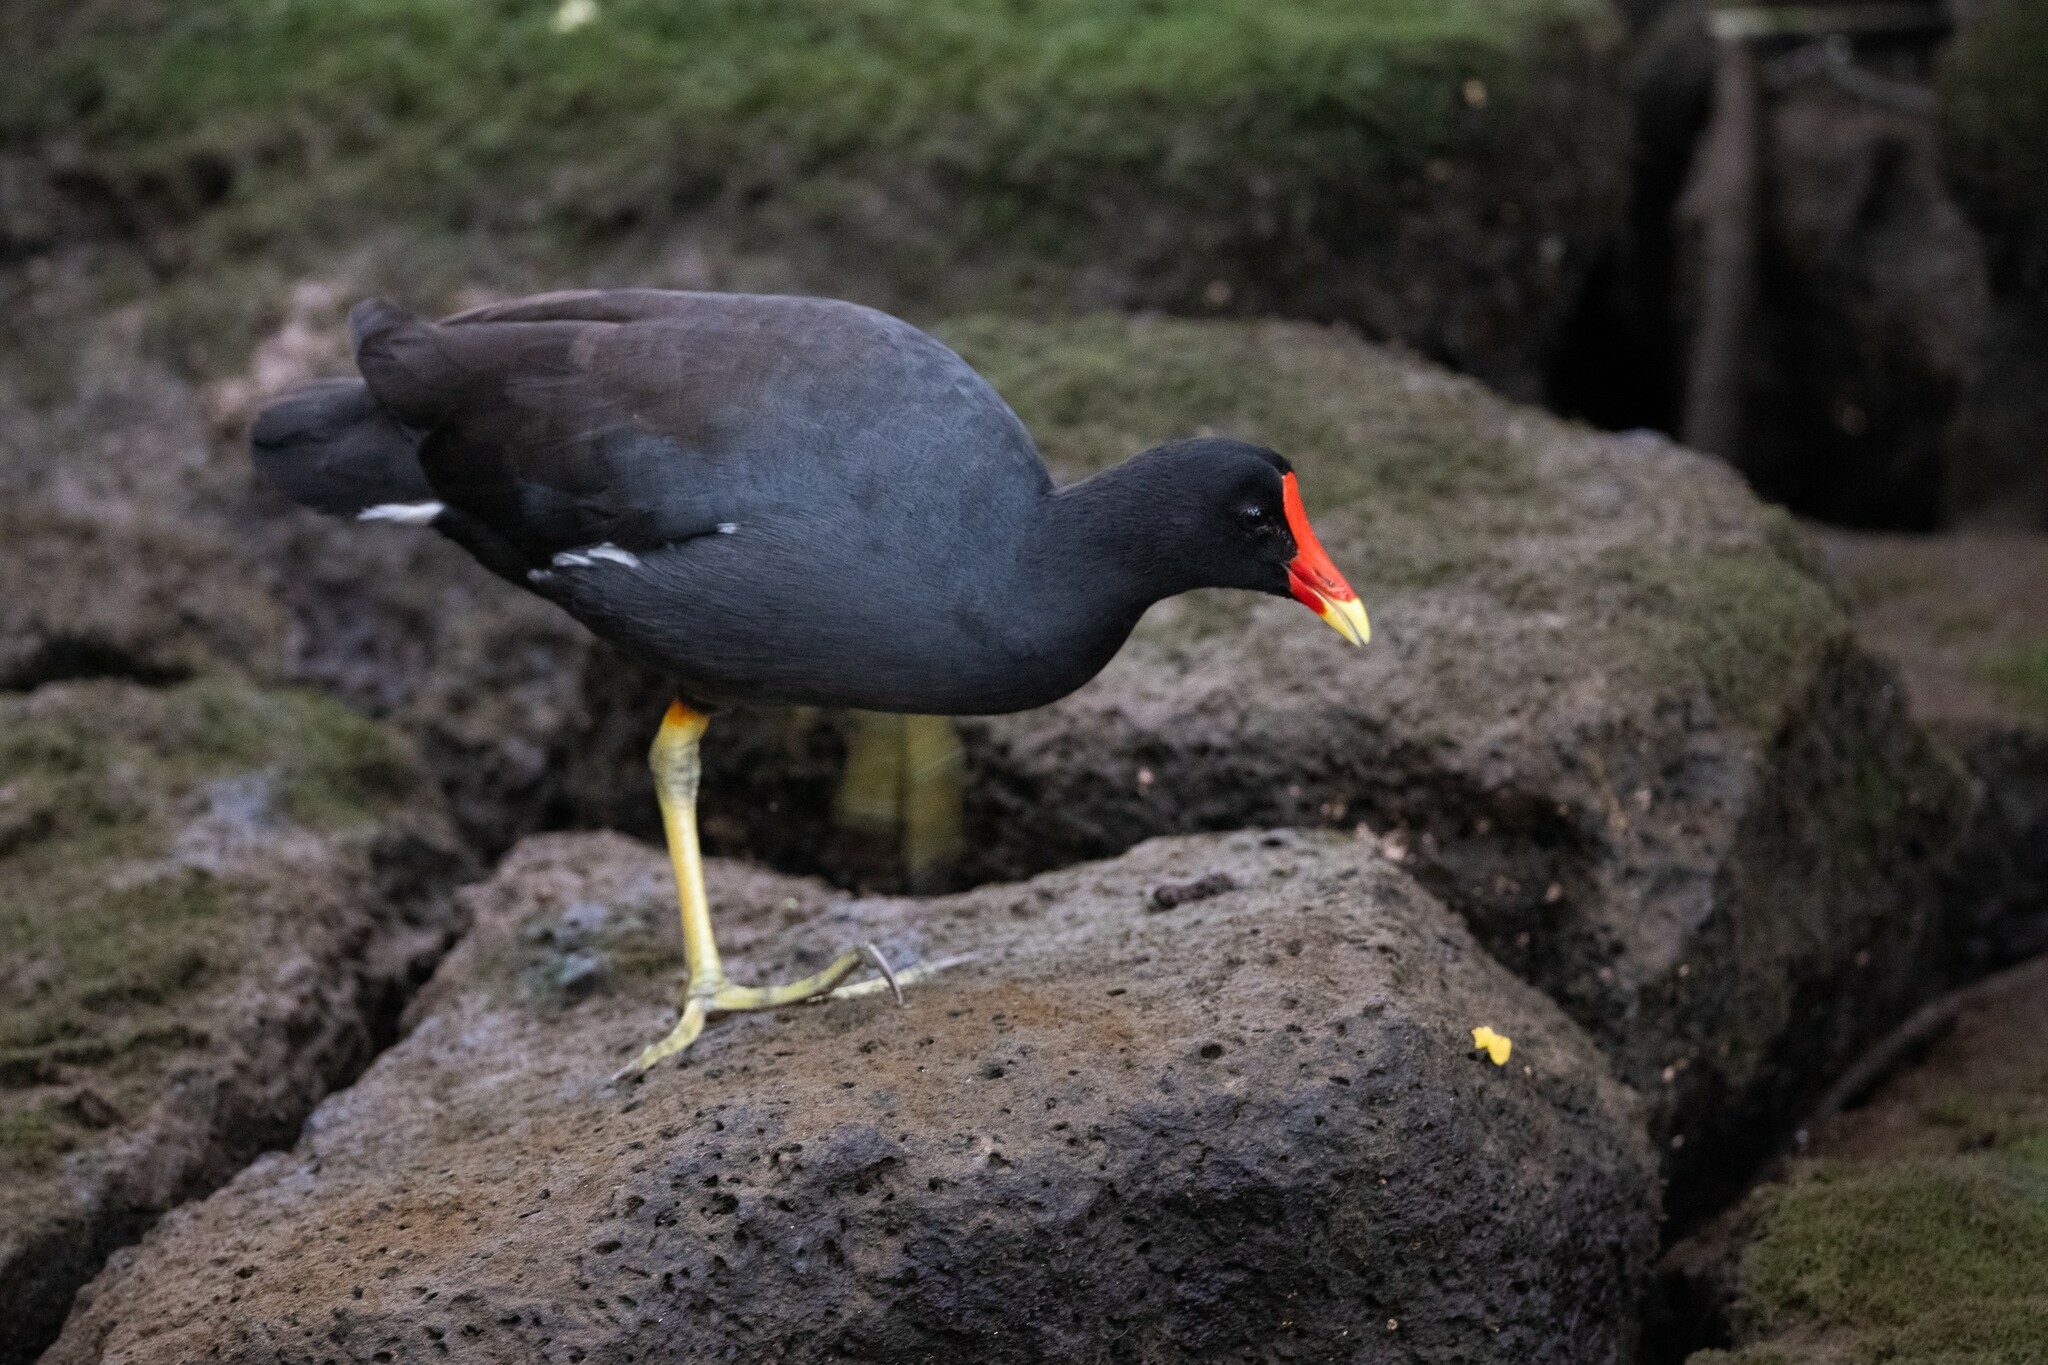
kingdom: Animalia
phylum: Chordata
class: Aves
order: Gruiformes
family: Rallidae
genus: Gallinula
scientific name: Gallinula chloropus
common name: Common moorhen
